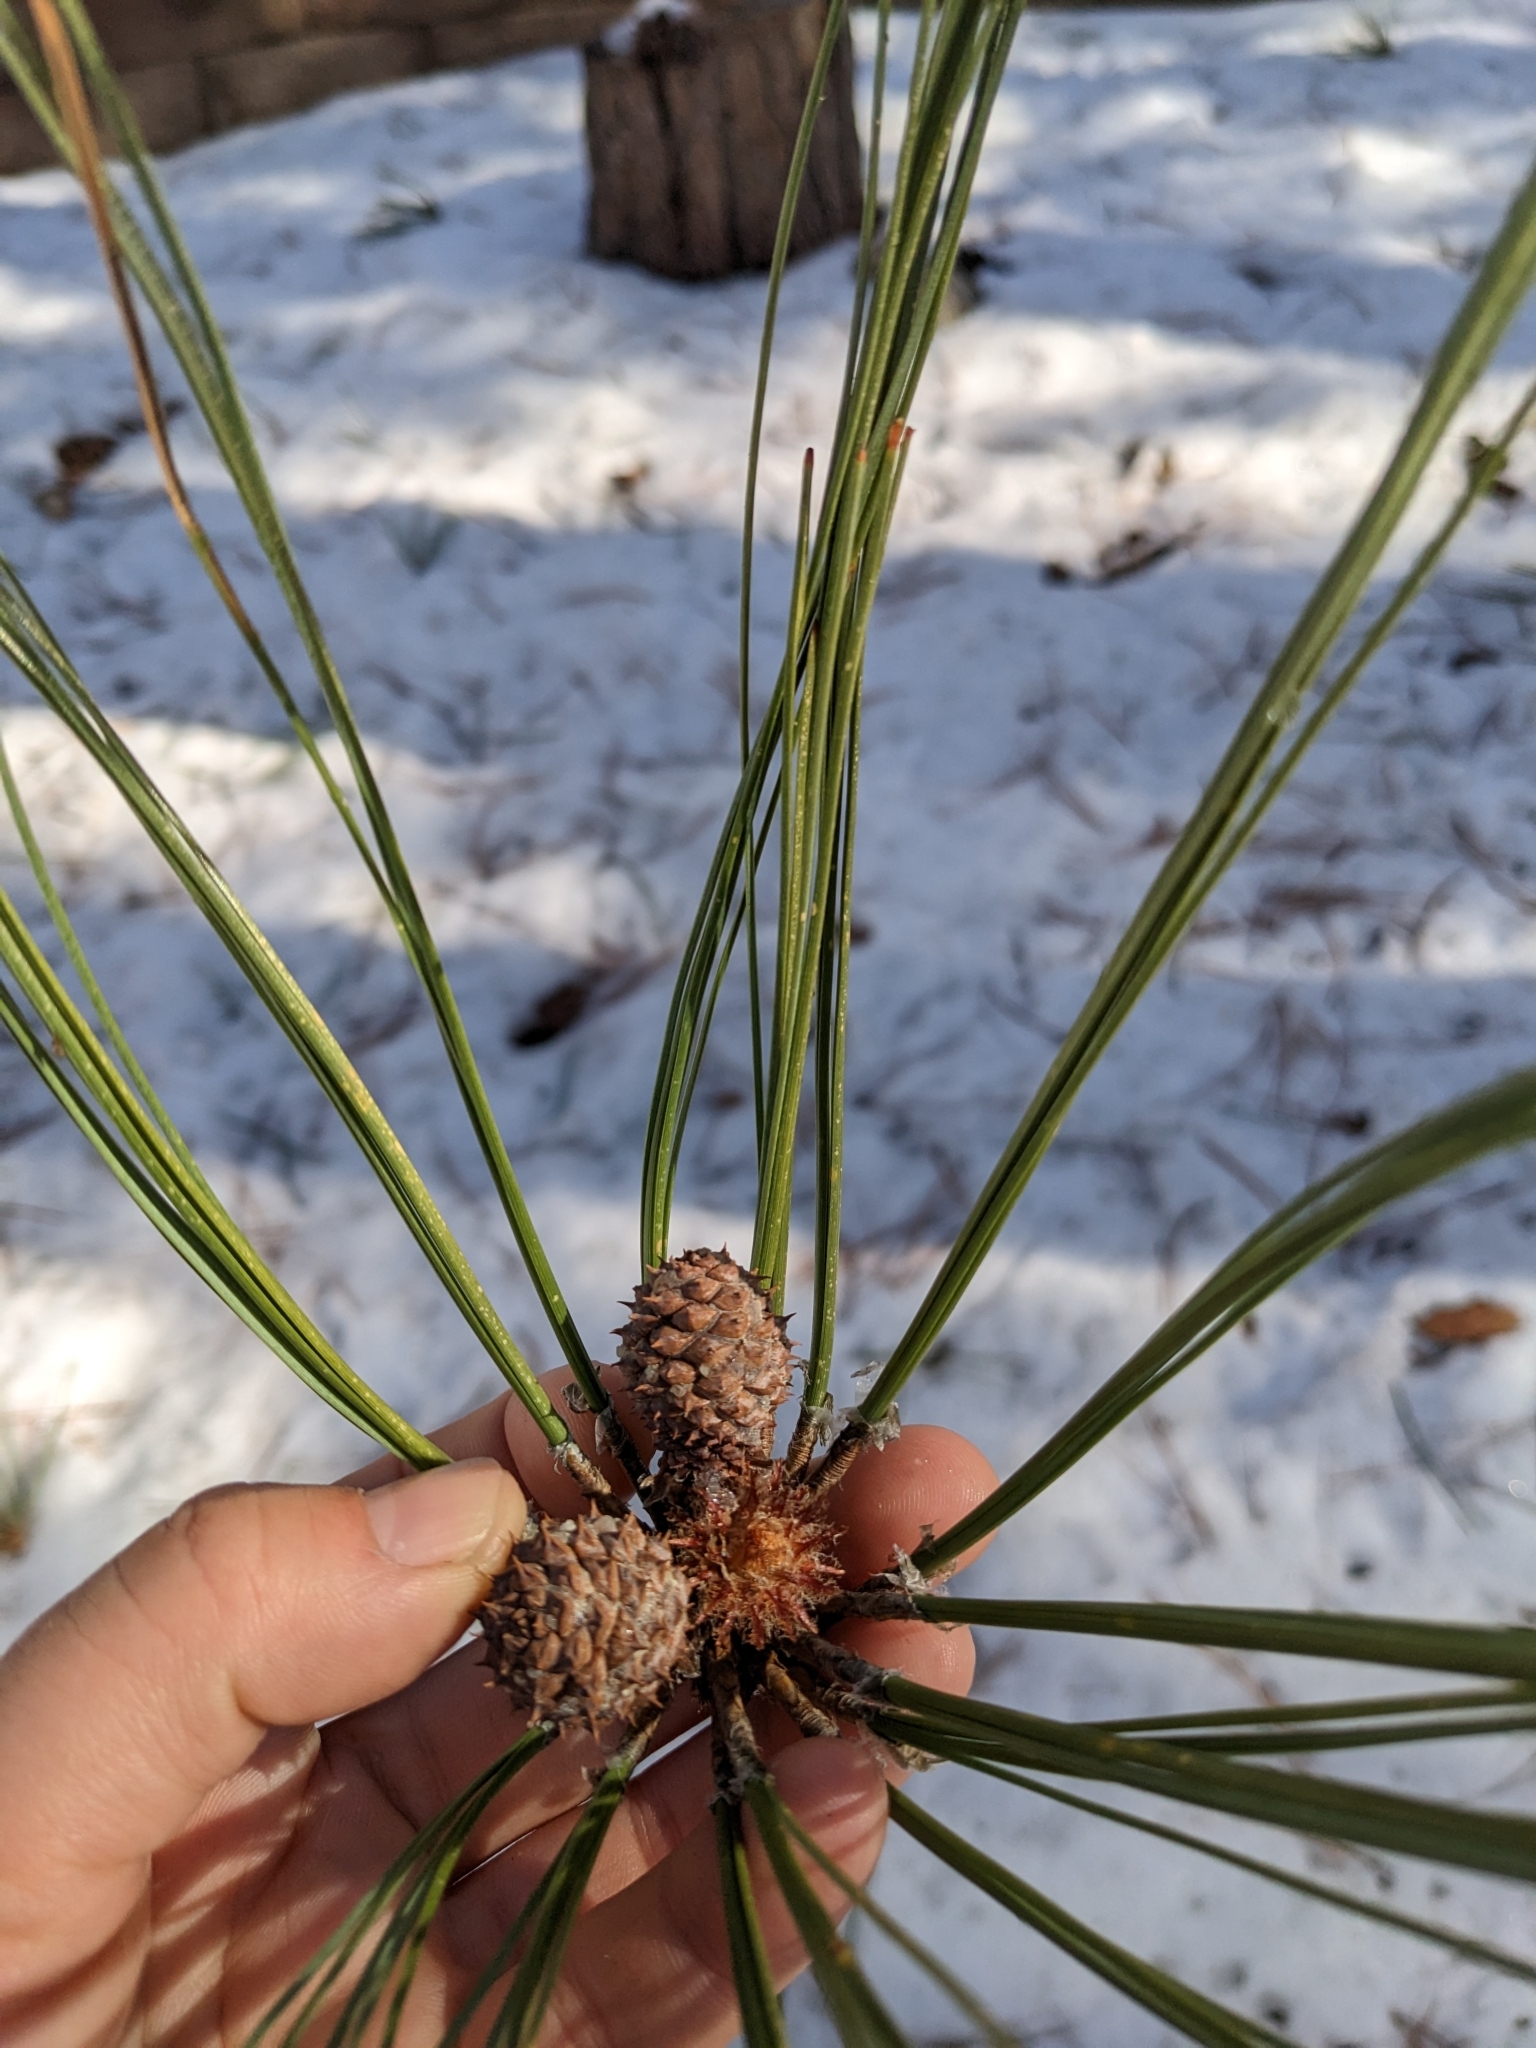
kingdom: Plantae
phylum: Tracheophyta
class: Pinopsida
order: Pinales
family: Pinaceae
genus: Pinus
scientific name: Pinus arizonica
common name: Arizona pine
